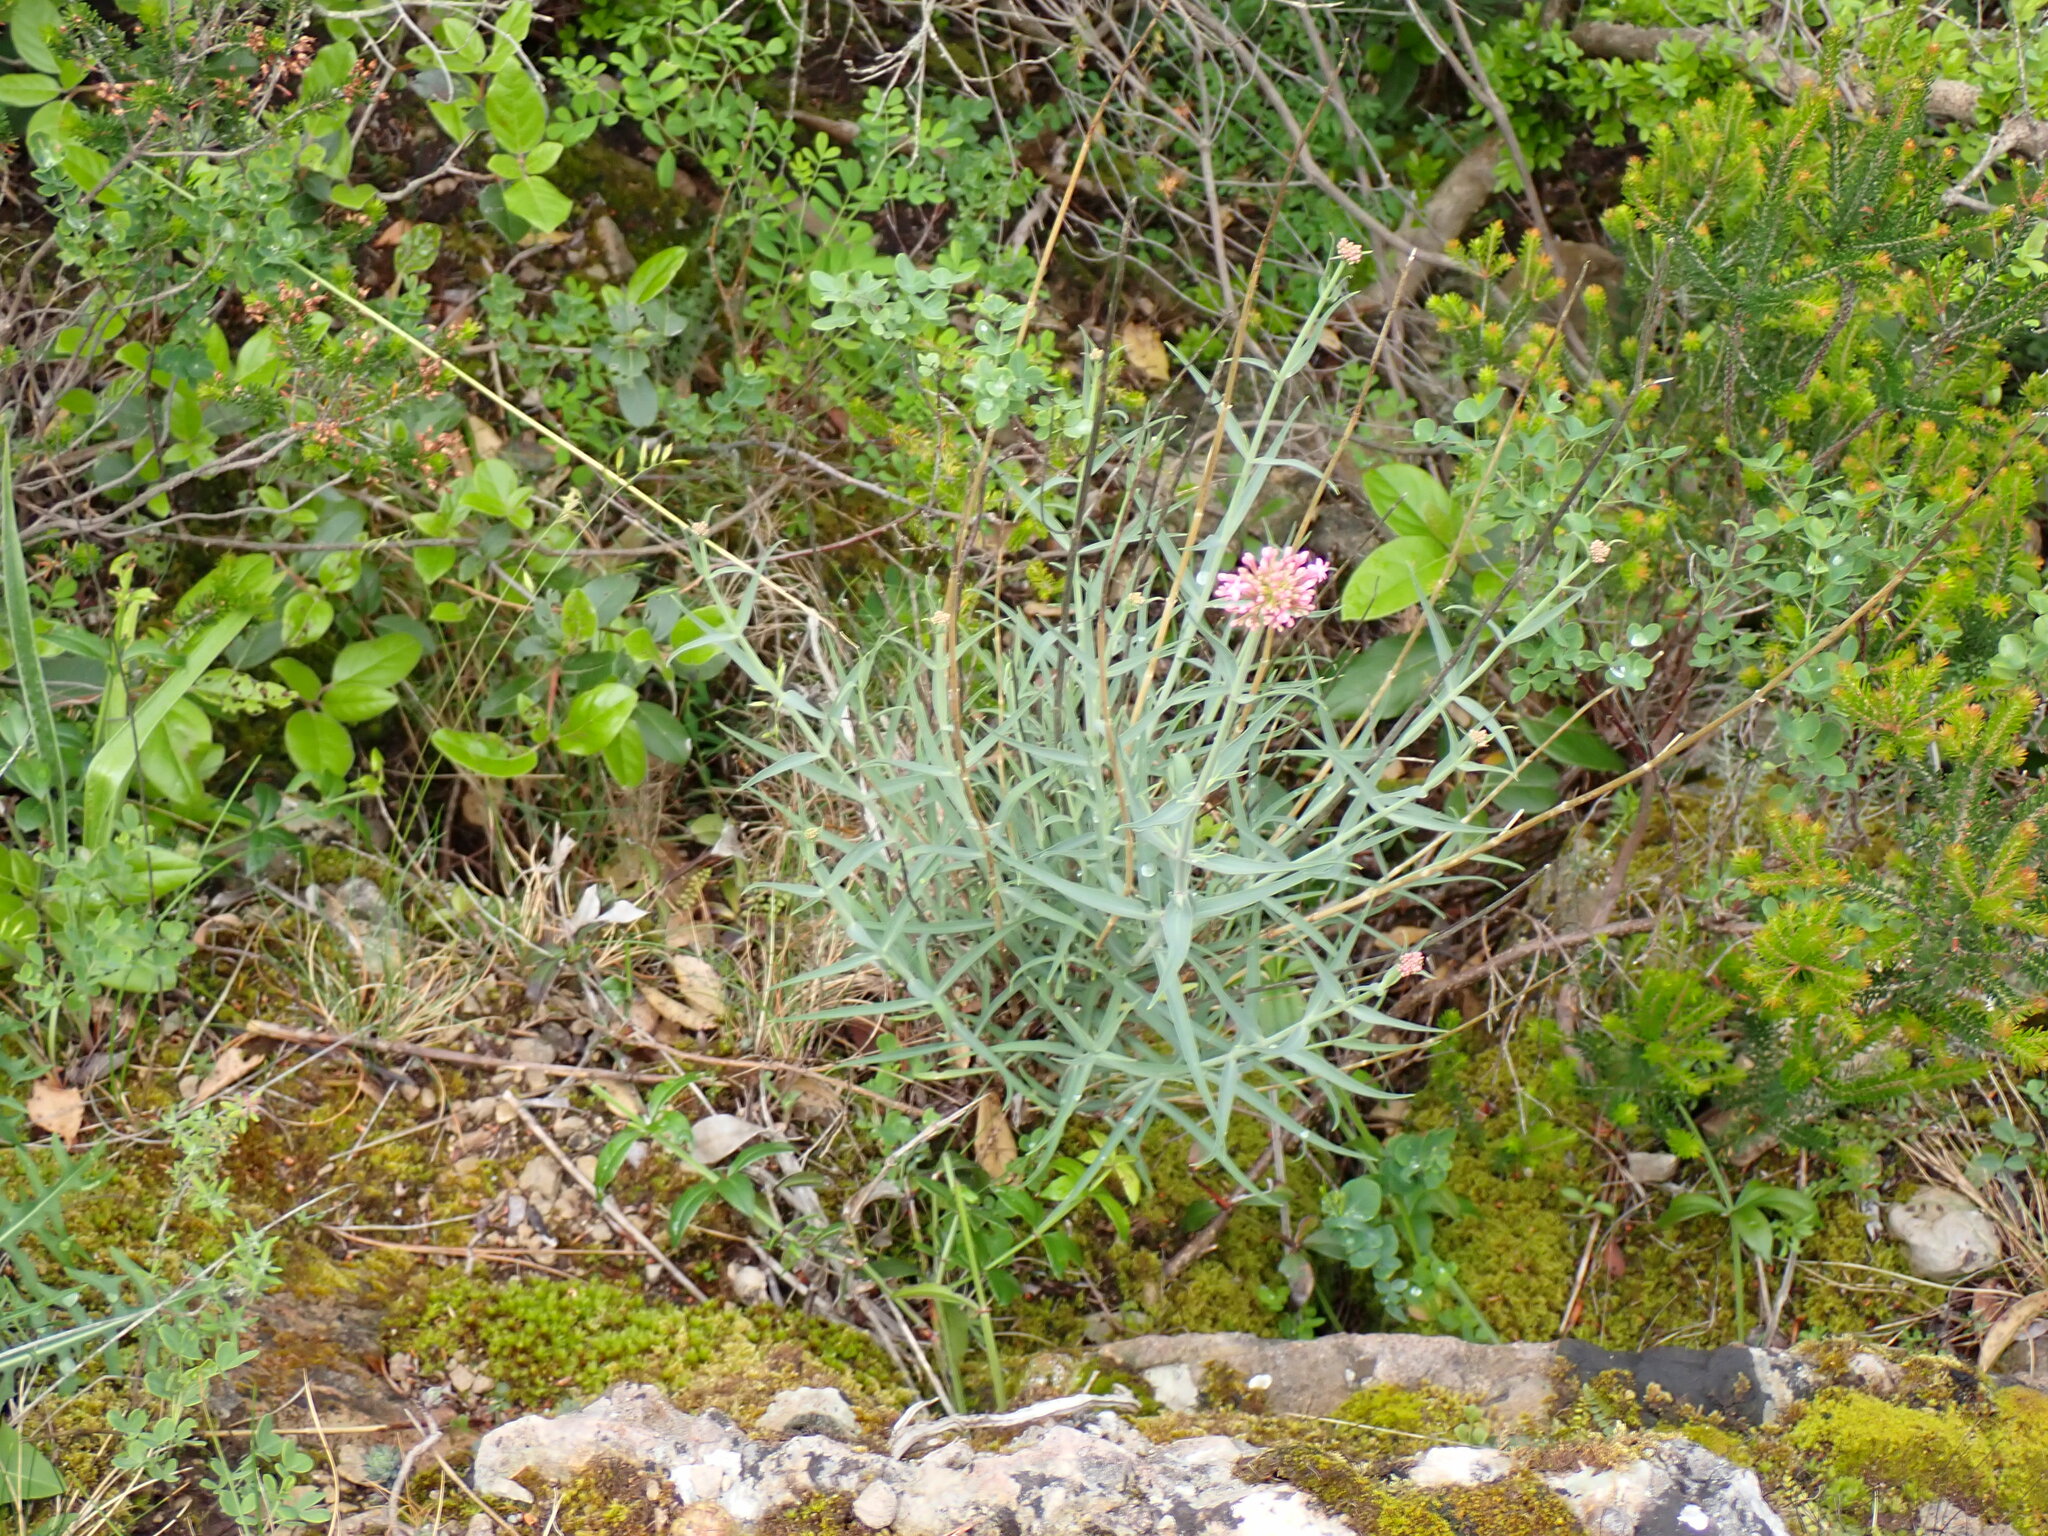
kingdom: Plantae
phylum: Tracheophyta
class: Magnoliopsida
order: Dipsacales
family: Caprifoliaceae
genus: Centranthus
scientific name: Centranthus lecoqii
